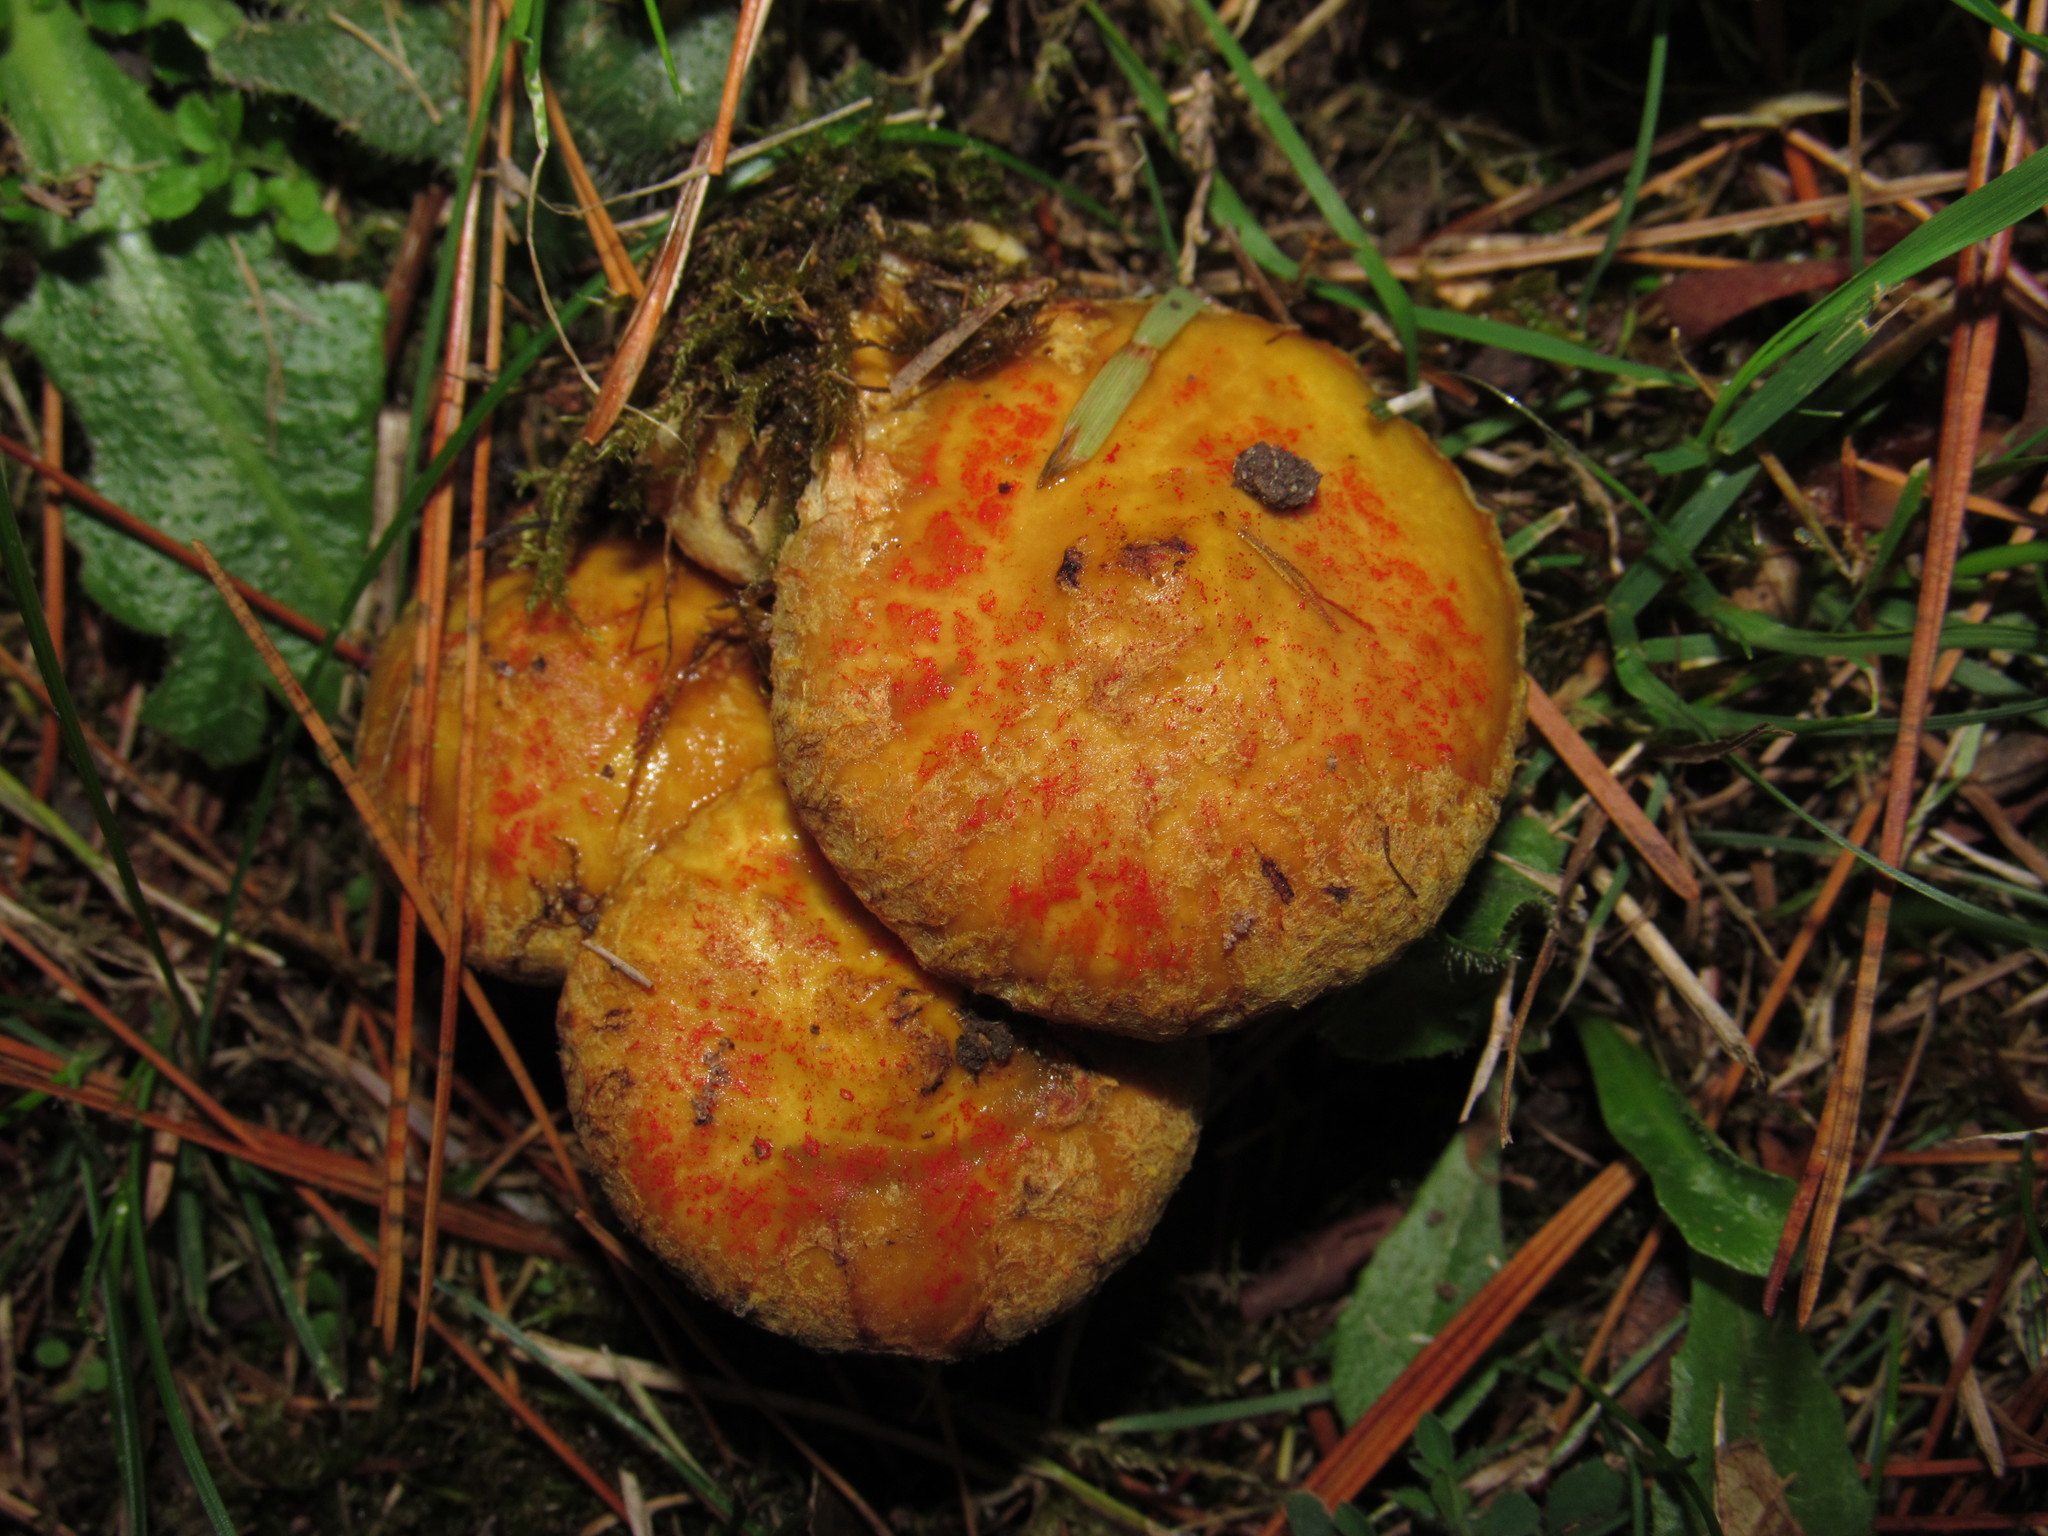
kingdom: Fungi
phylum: Basidiomycota
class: Agaricomycetes
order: Boletales
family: Suillaceae
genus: Suillus
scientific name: Suillus americanus
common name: Chicken fat mushroom
